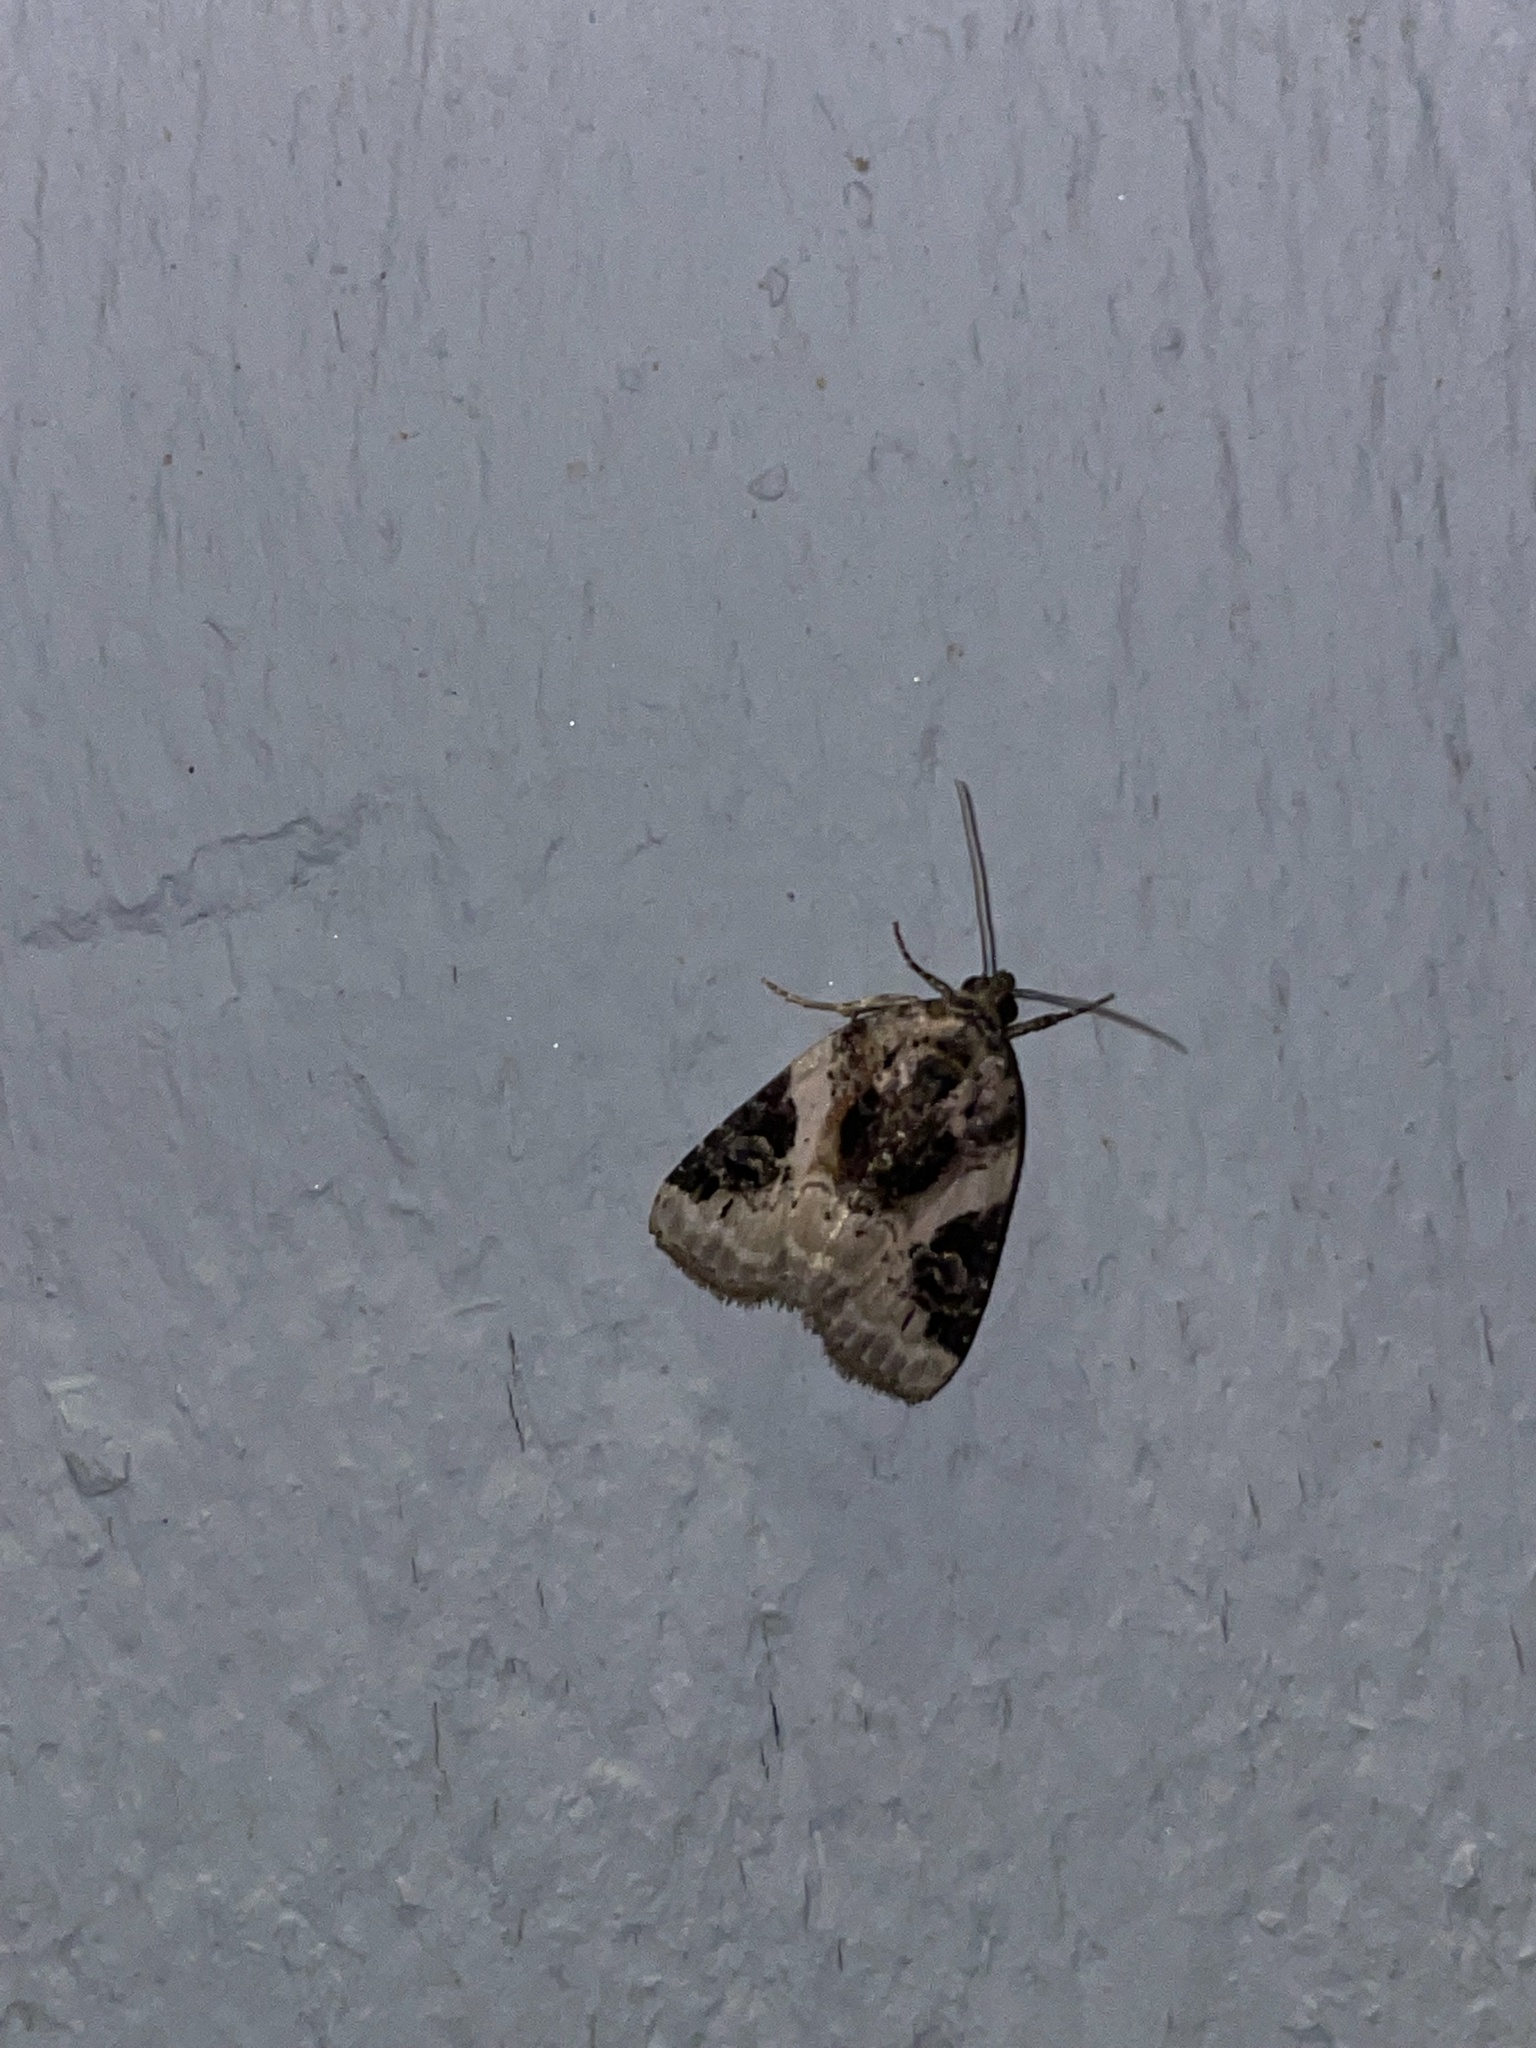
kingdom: Animalia
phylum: Arthropoda
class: Insecta
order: Lepidoptera
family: Noctuidae
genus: Pseudeustrotia
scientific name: Pseudeustrotia carneola
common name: Pink-barred lithacodia moth
